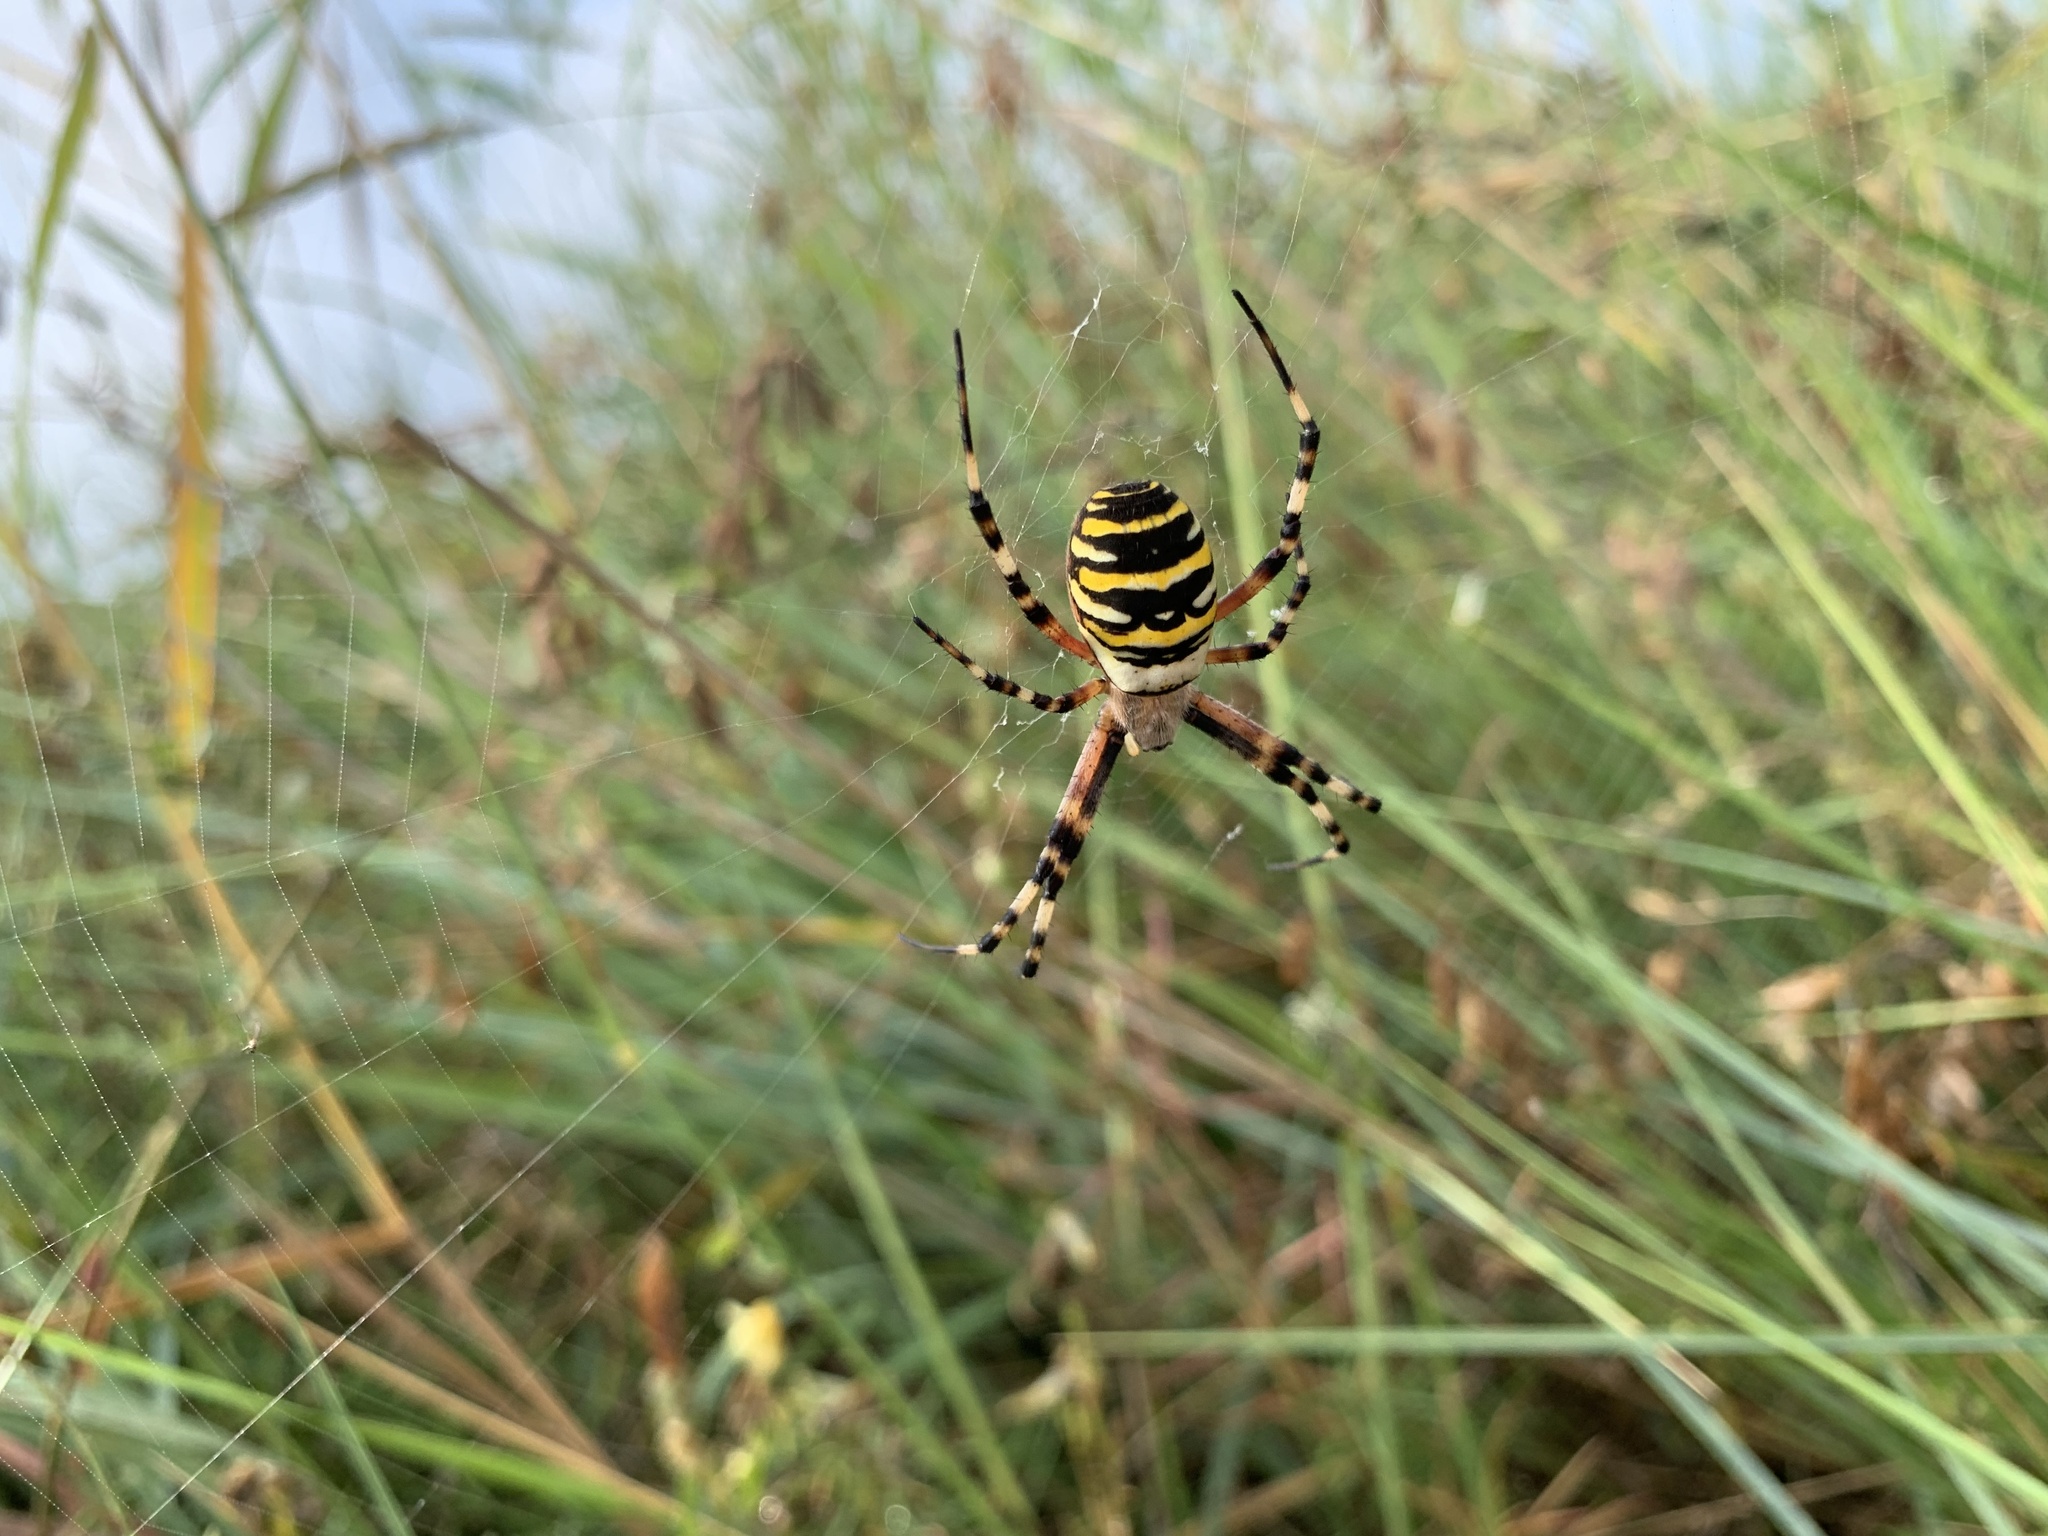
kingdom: Animalia
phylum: Arthropoda
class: Arachnida
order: Araneae
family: Araneidae
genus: Argiope
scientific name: Argiope bruennichi
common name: Wasp spider
